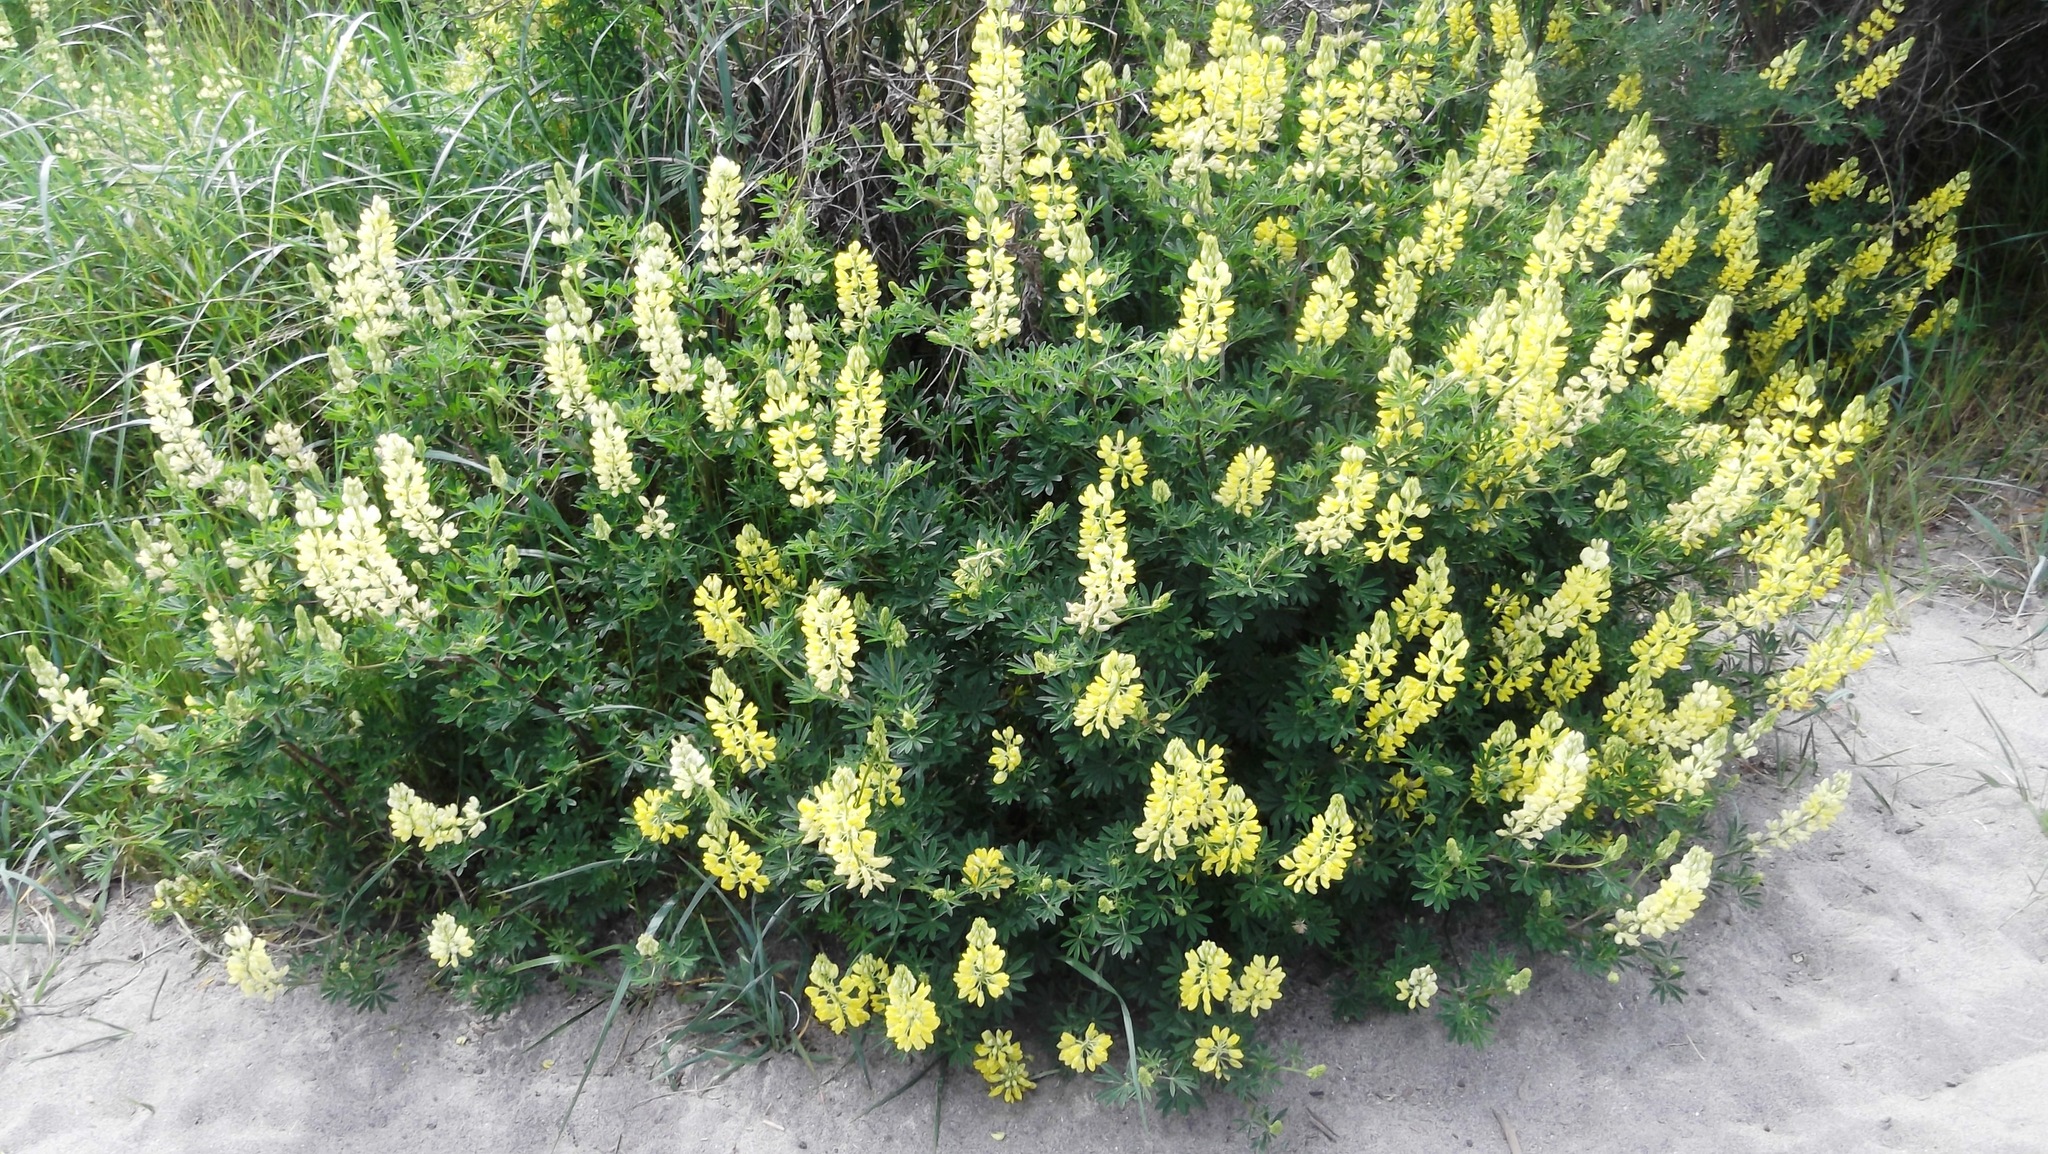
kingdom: Plantae
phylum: Tracheophyta
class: Magnoliopsida
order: Fabales
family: Fabaceae
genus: Lupinus
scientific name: Lupinus arboreus
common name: Yellow bush lupine
